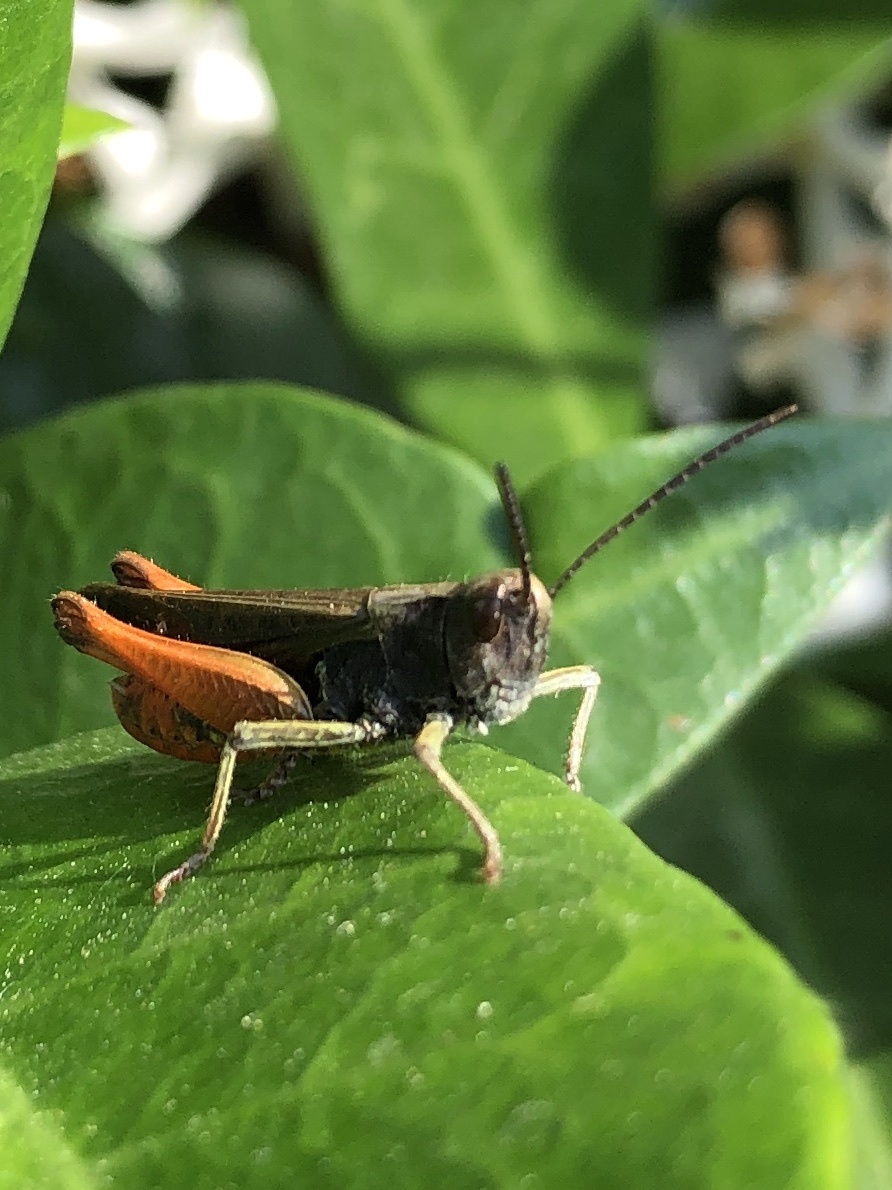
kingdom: Animalia
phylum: Arthropoda
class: Insecta
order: Orthoptera
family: Acrididae
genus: Omocestus
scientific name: Omocestus rufipes
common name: Woodland grasshopper
